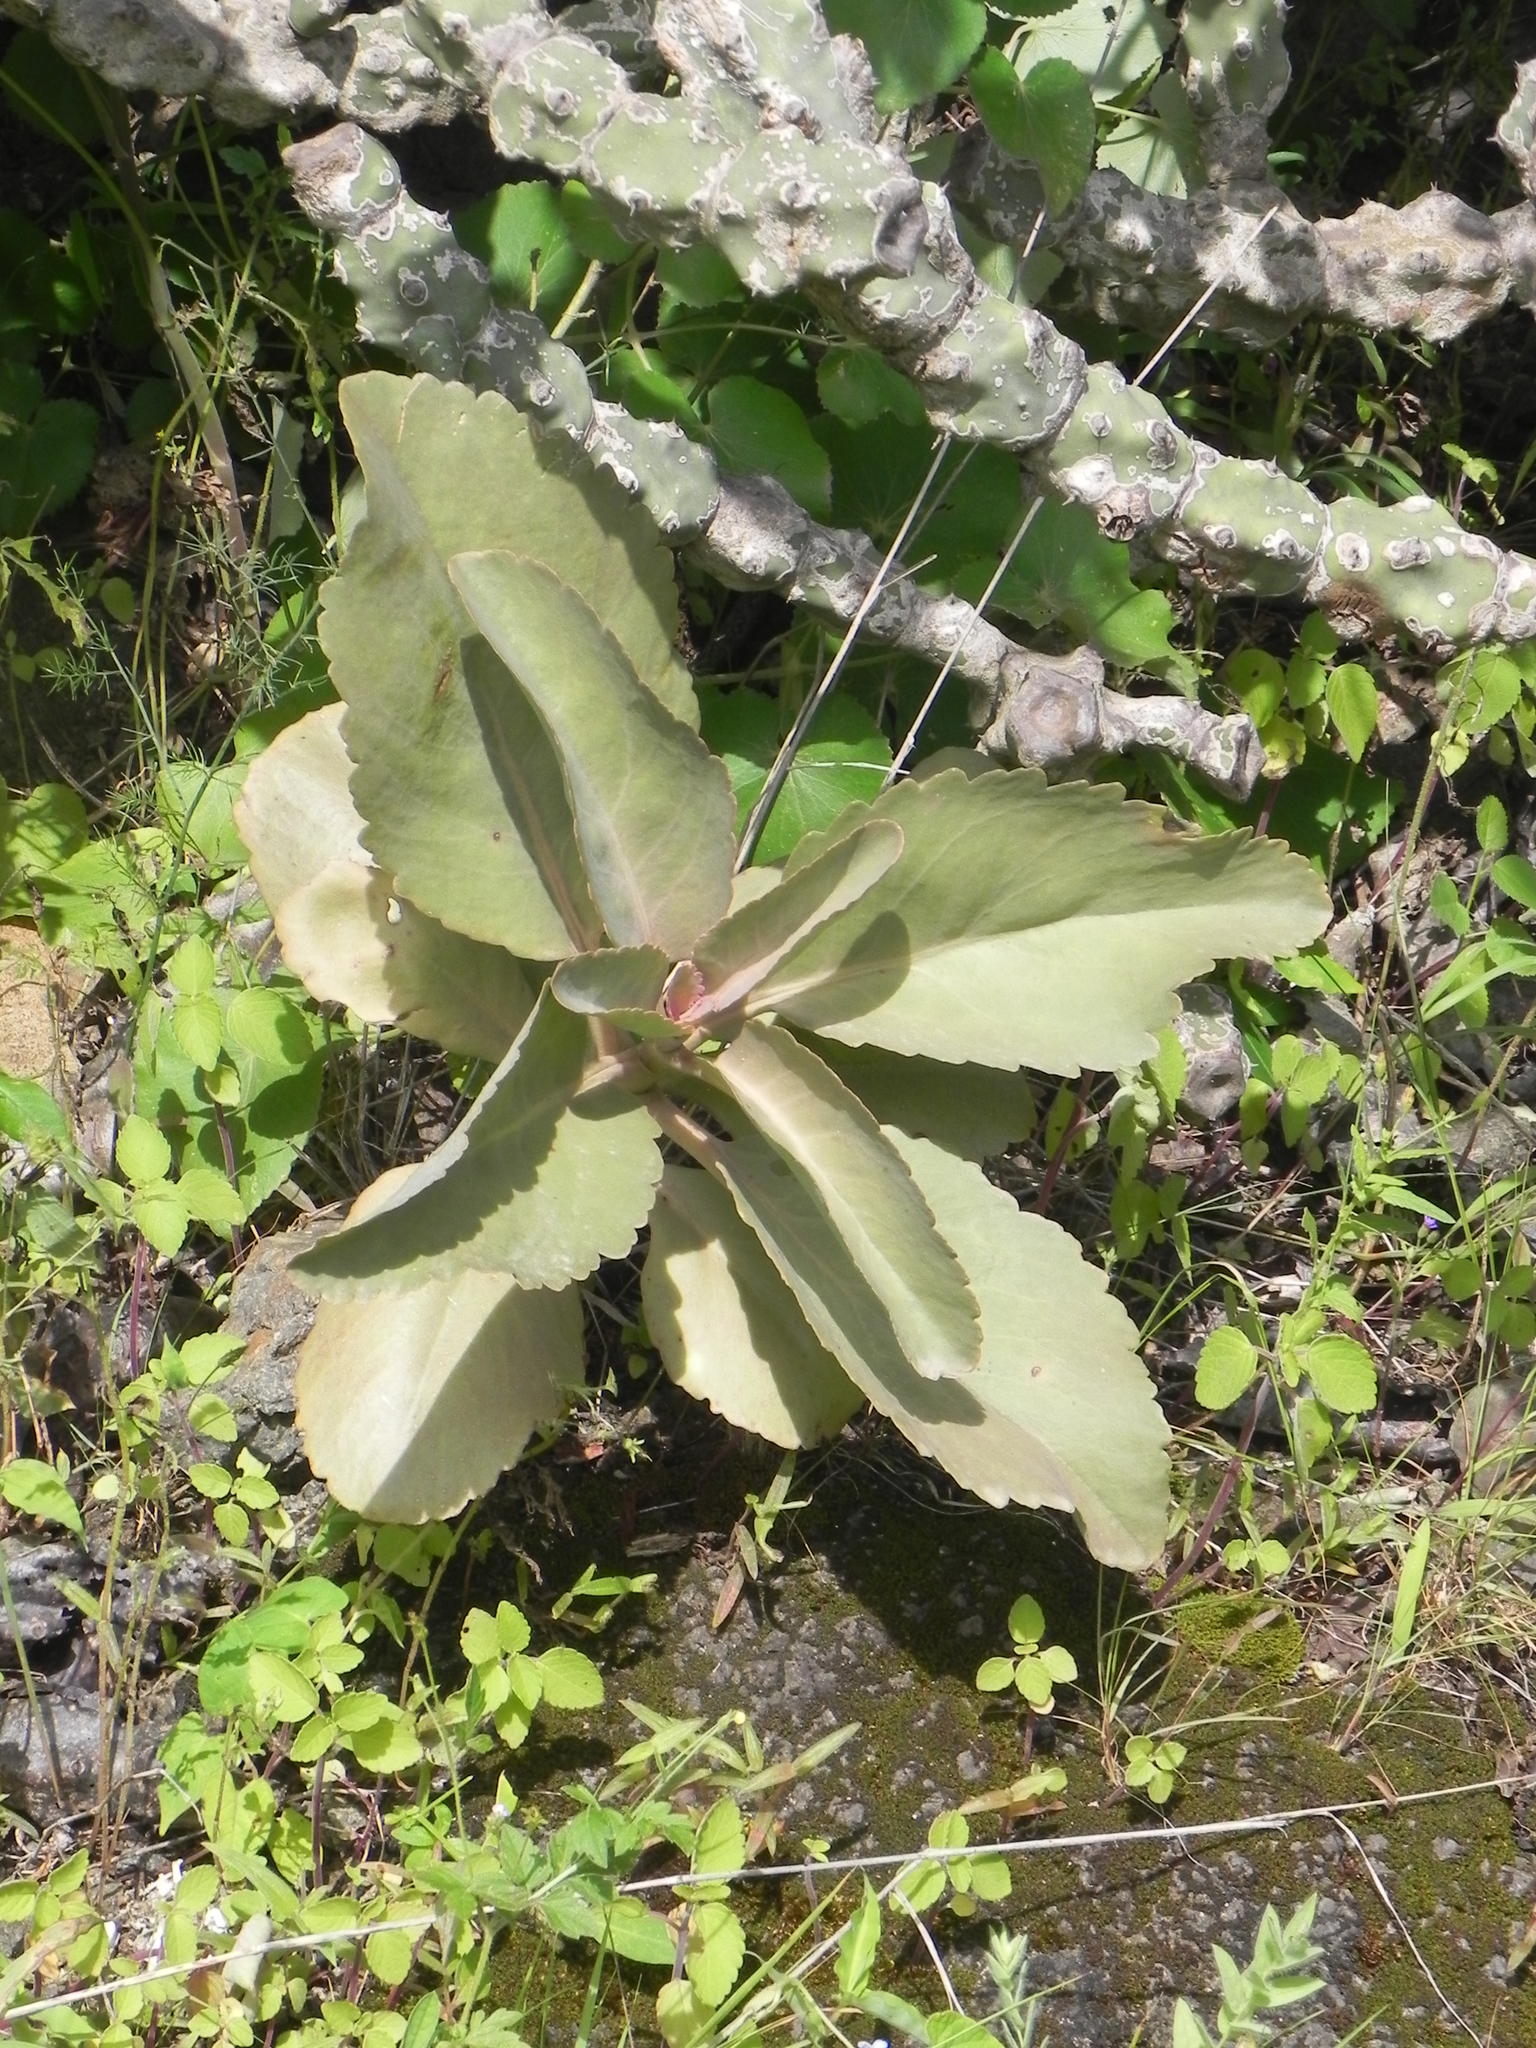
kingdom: Plantae
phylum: Tracheophyta
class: Magnoliopsida
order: Saxifragales
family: Crassulaceae
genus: Kalanchoe
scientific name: Kalanchoe olivacea
